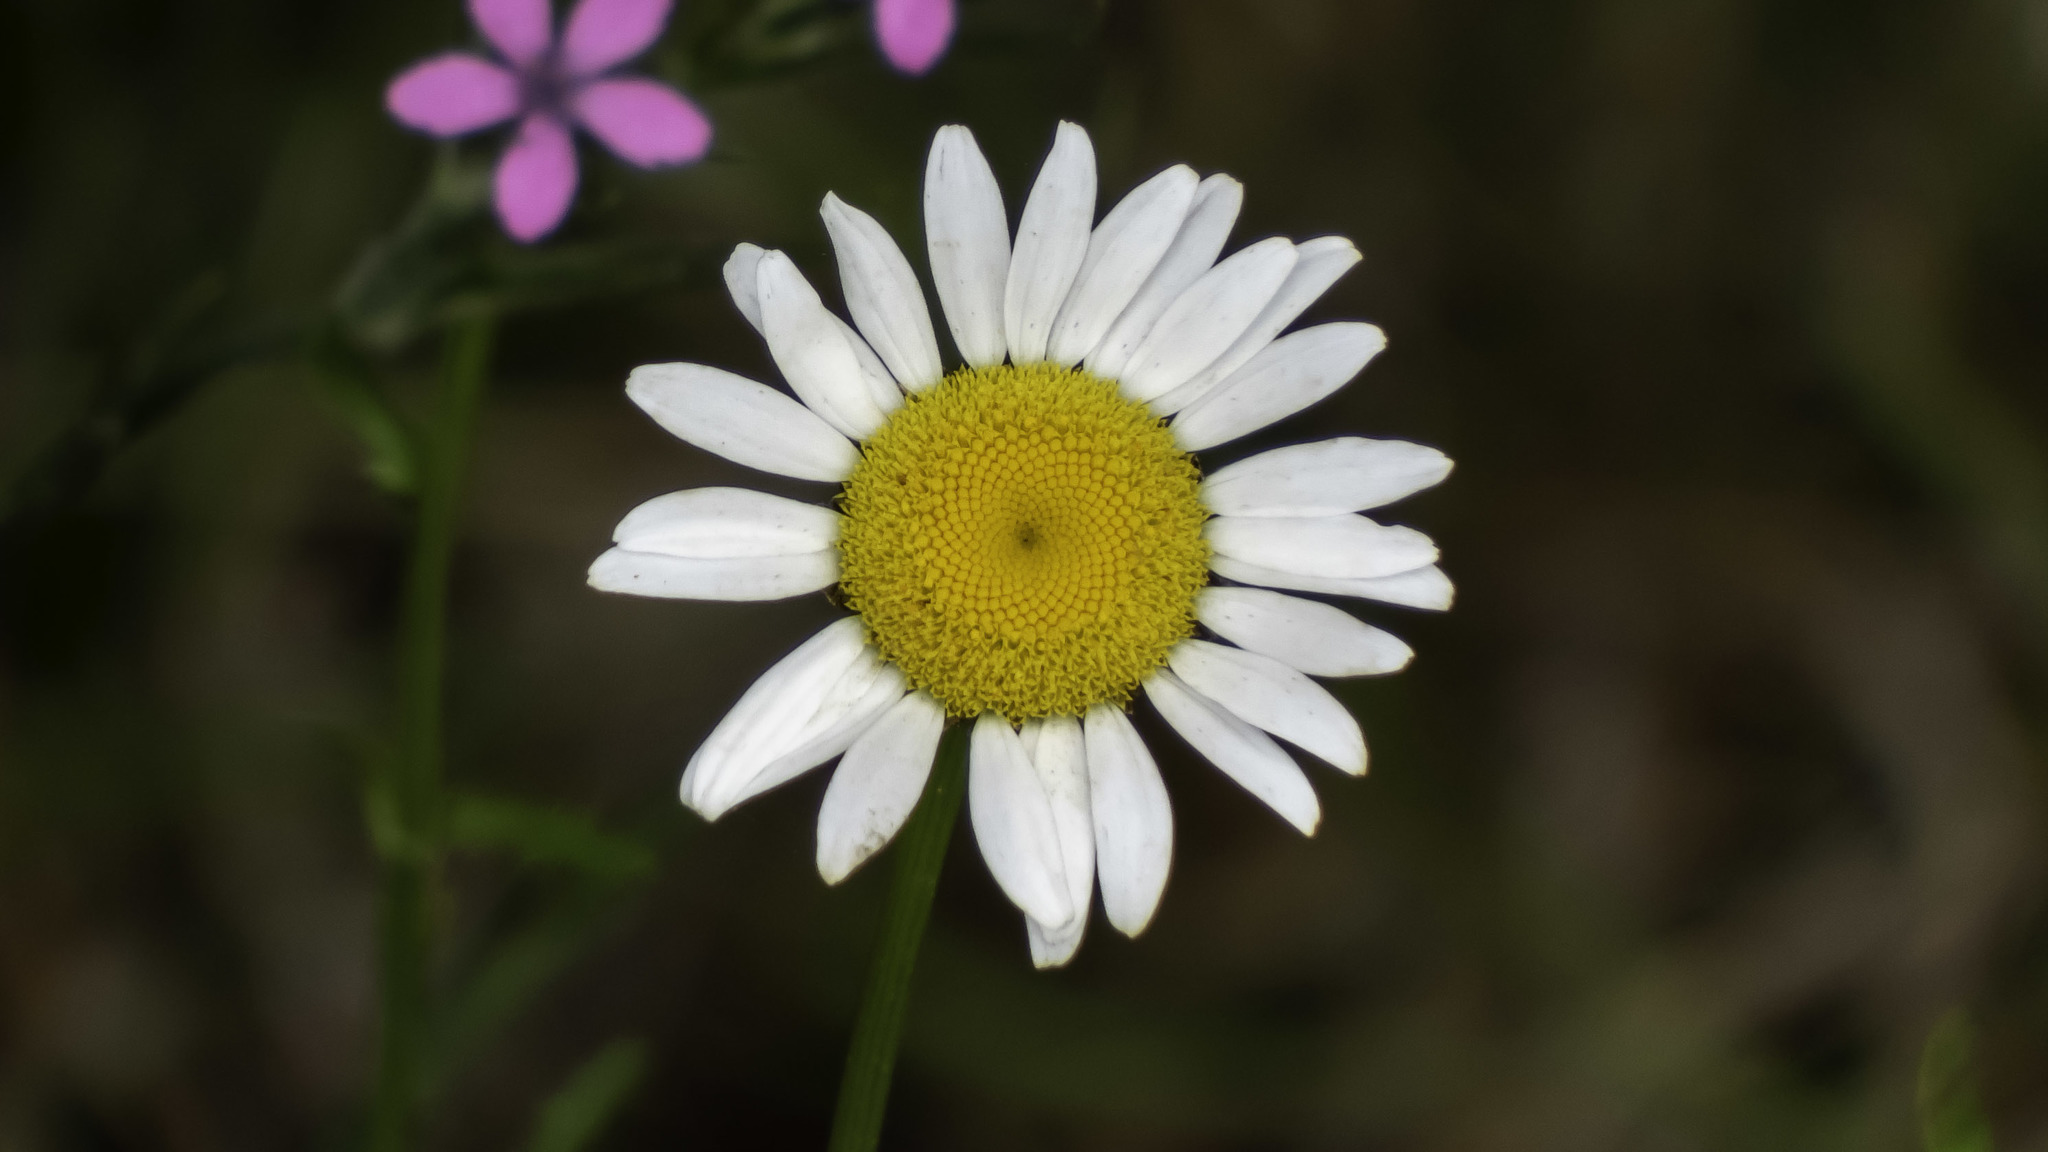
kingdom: Plantae
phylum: Tracheophyta
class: Magnoliopsida
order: Asterales
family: Asteraceae
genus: Leucanthemum
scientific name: Leucanthemum vulgare
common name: Oxeye daisy
